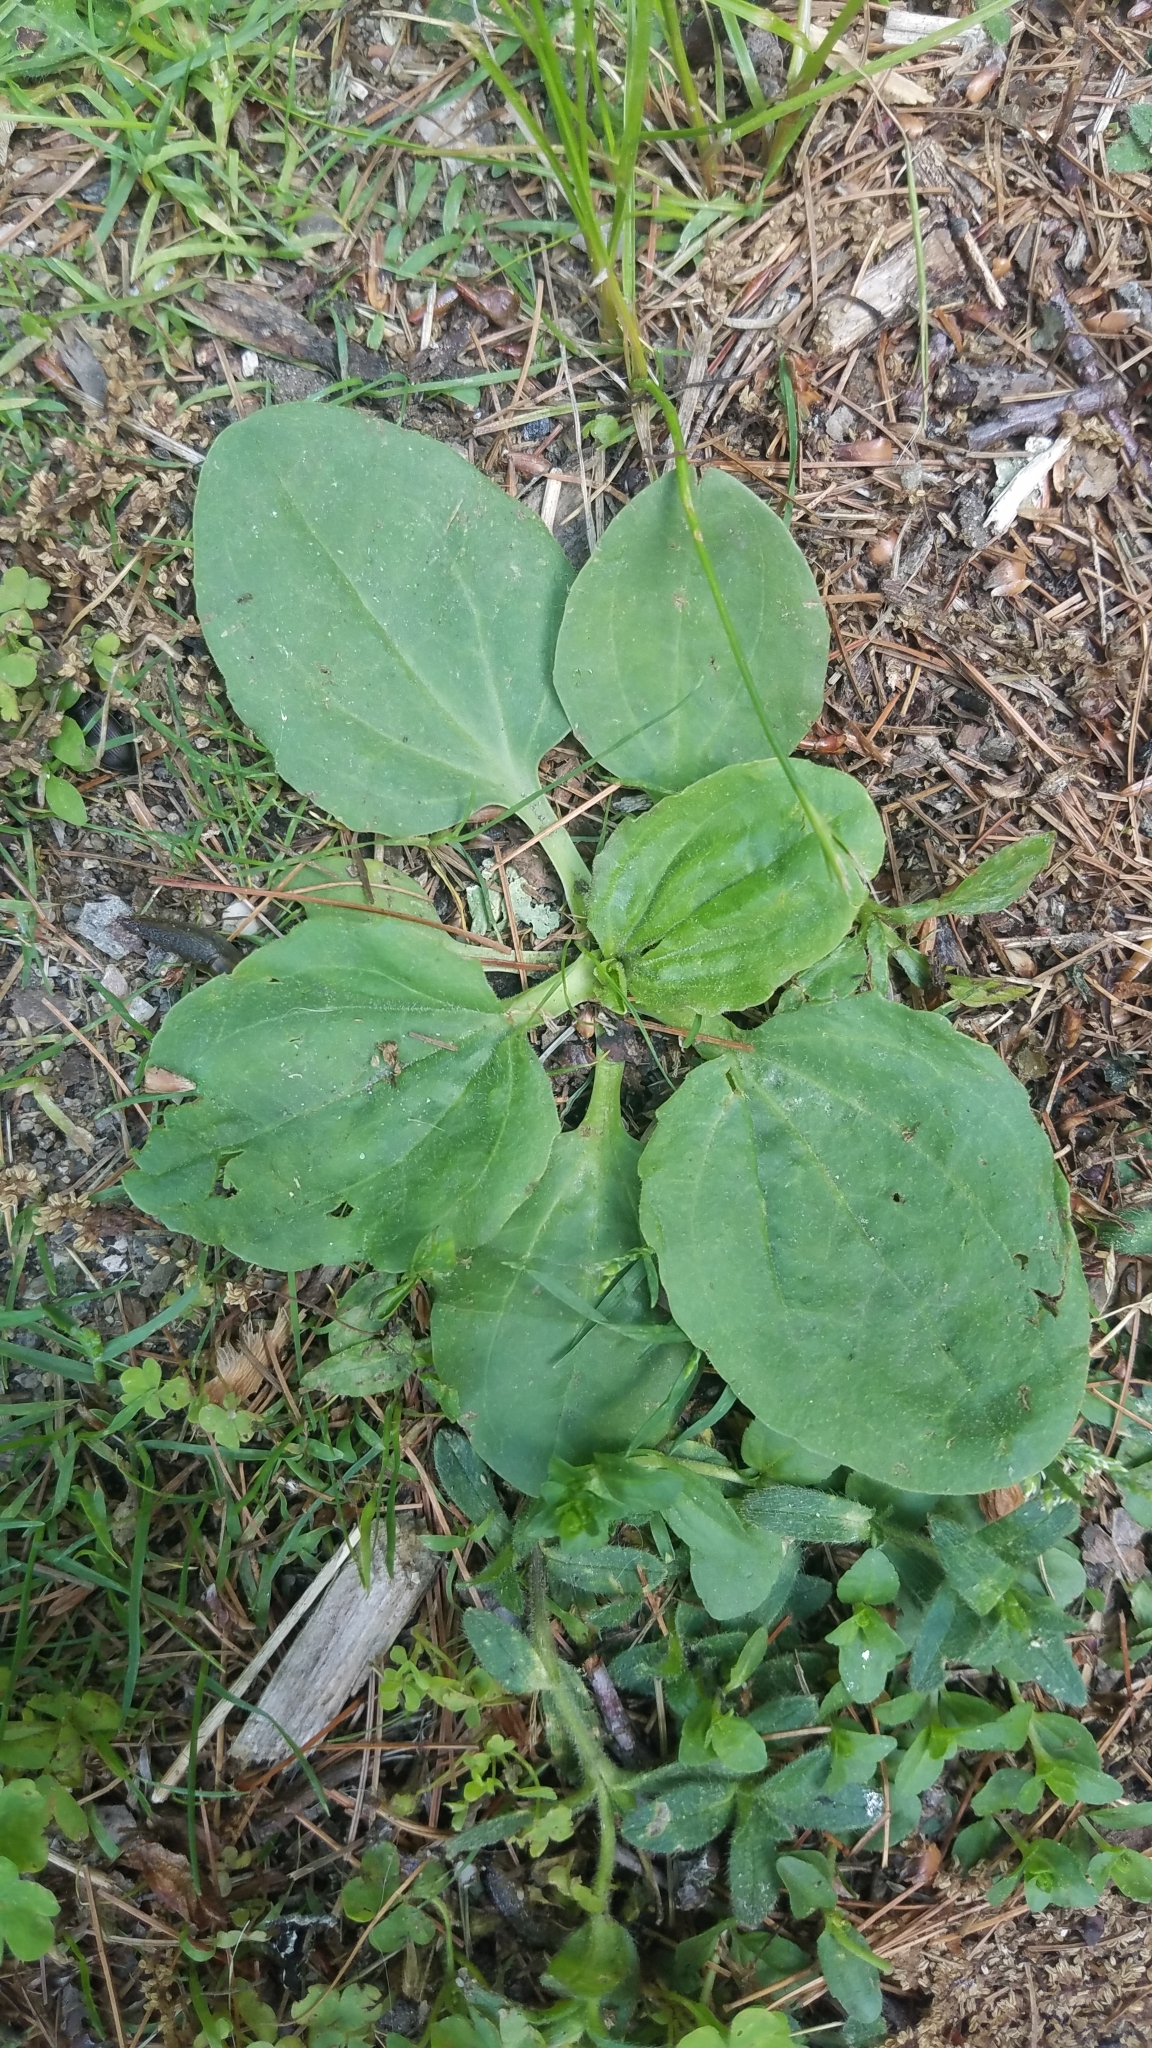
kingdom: Plantae
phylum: Tracheophyta
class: Magnoliopsida
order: Lamiales
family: Plantaginaceae
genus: Plantago
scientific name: Plantago major
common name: Common plantain
